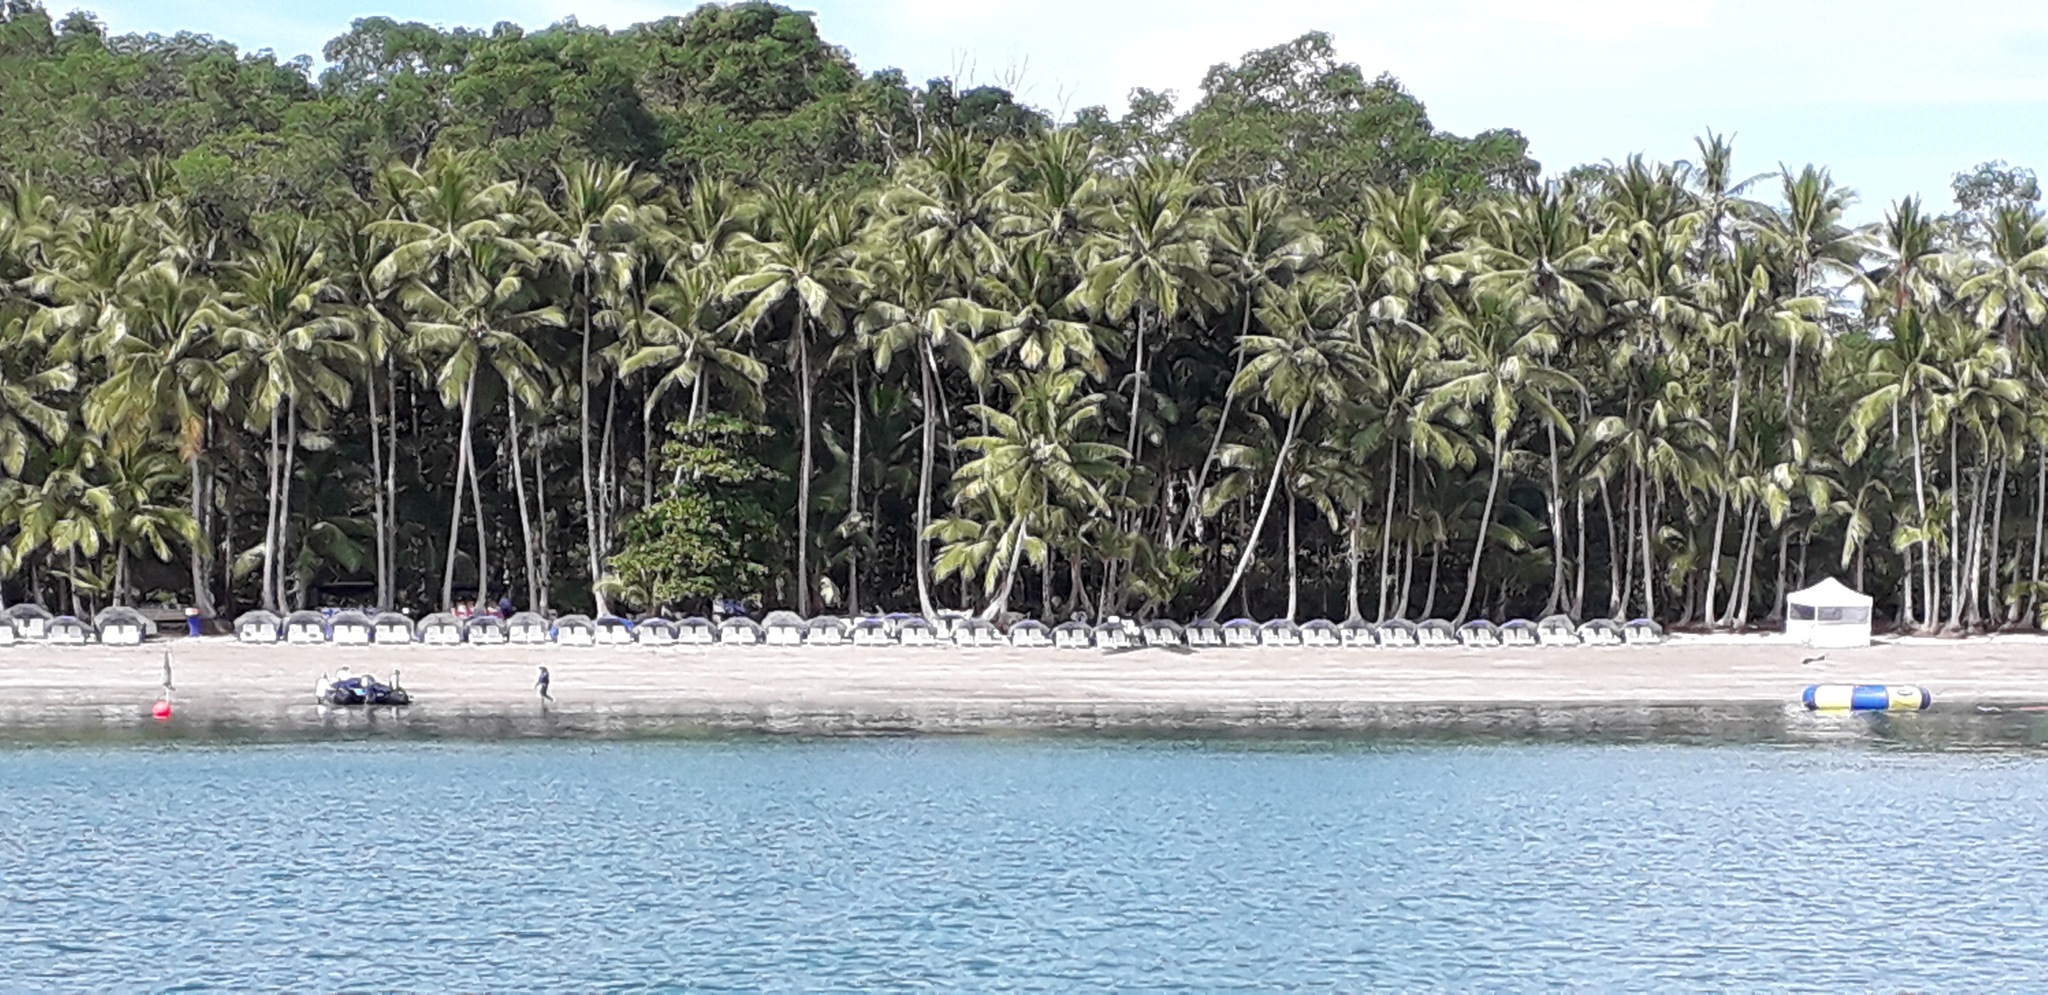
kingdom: Plantae
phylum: Tracheophyta
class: Liliopsida
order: Arecales
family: Arecaceae
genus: Cocos
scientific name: Cocos nucifera
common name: Coconut palm
